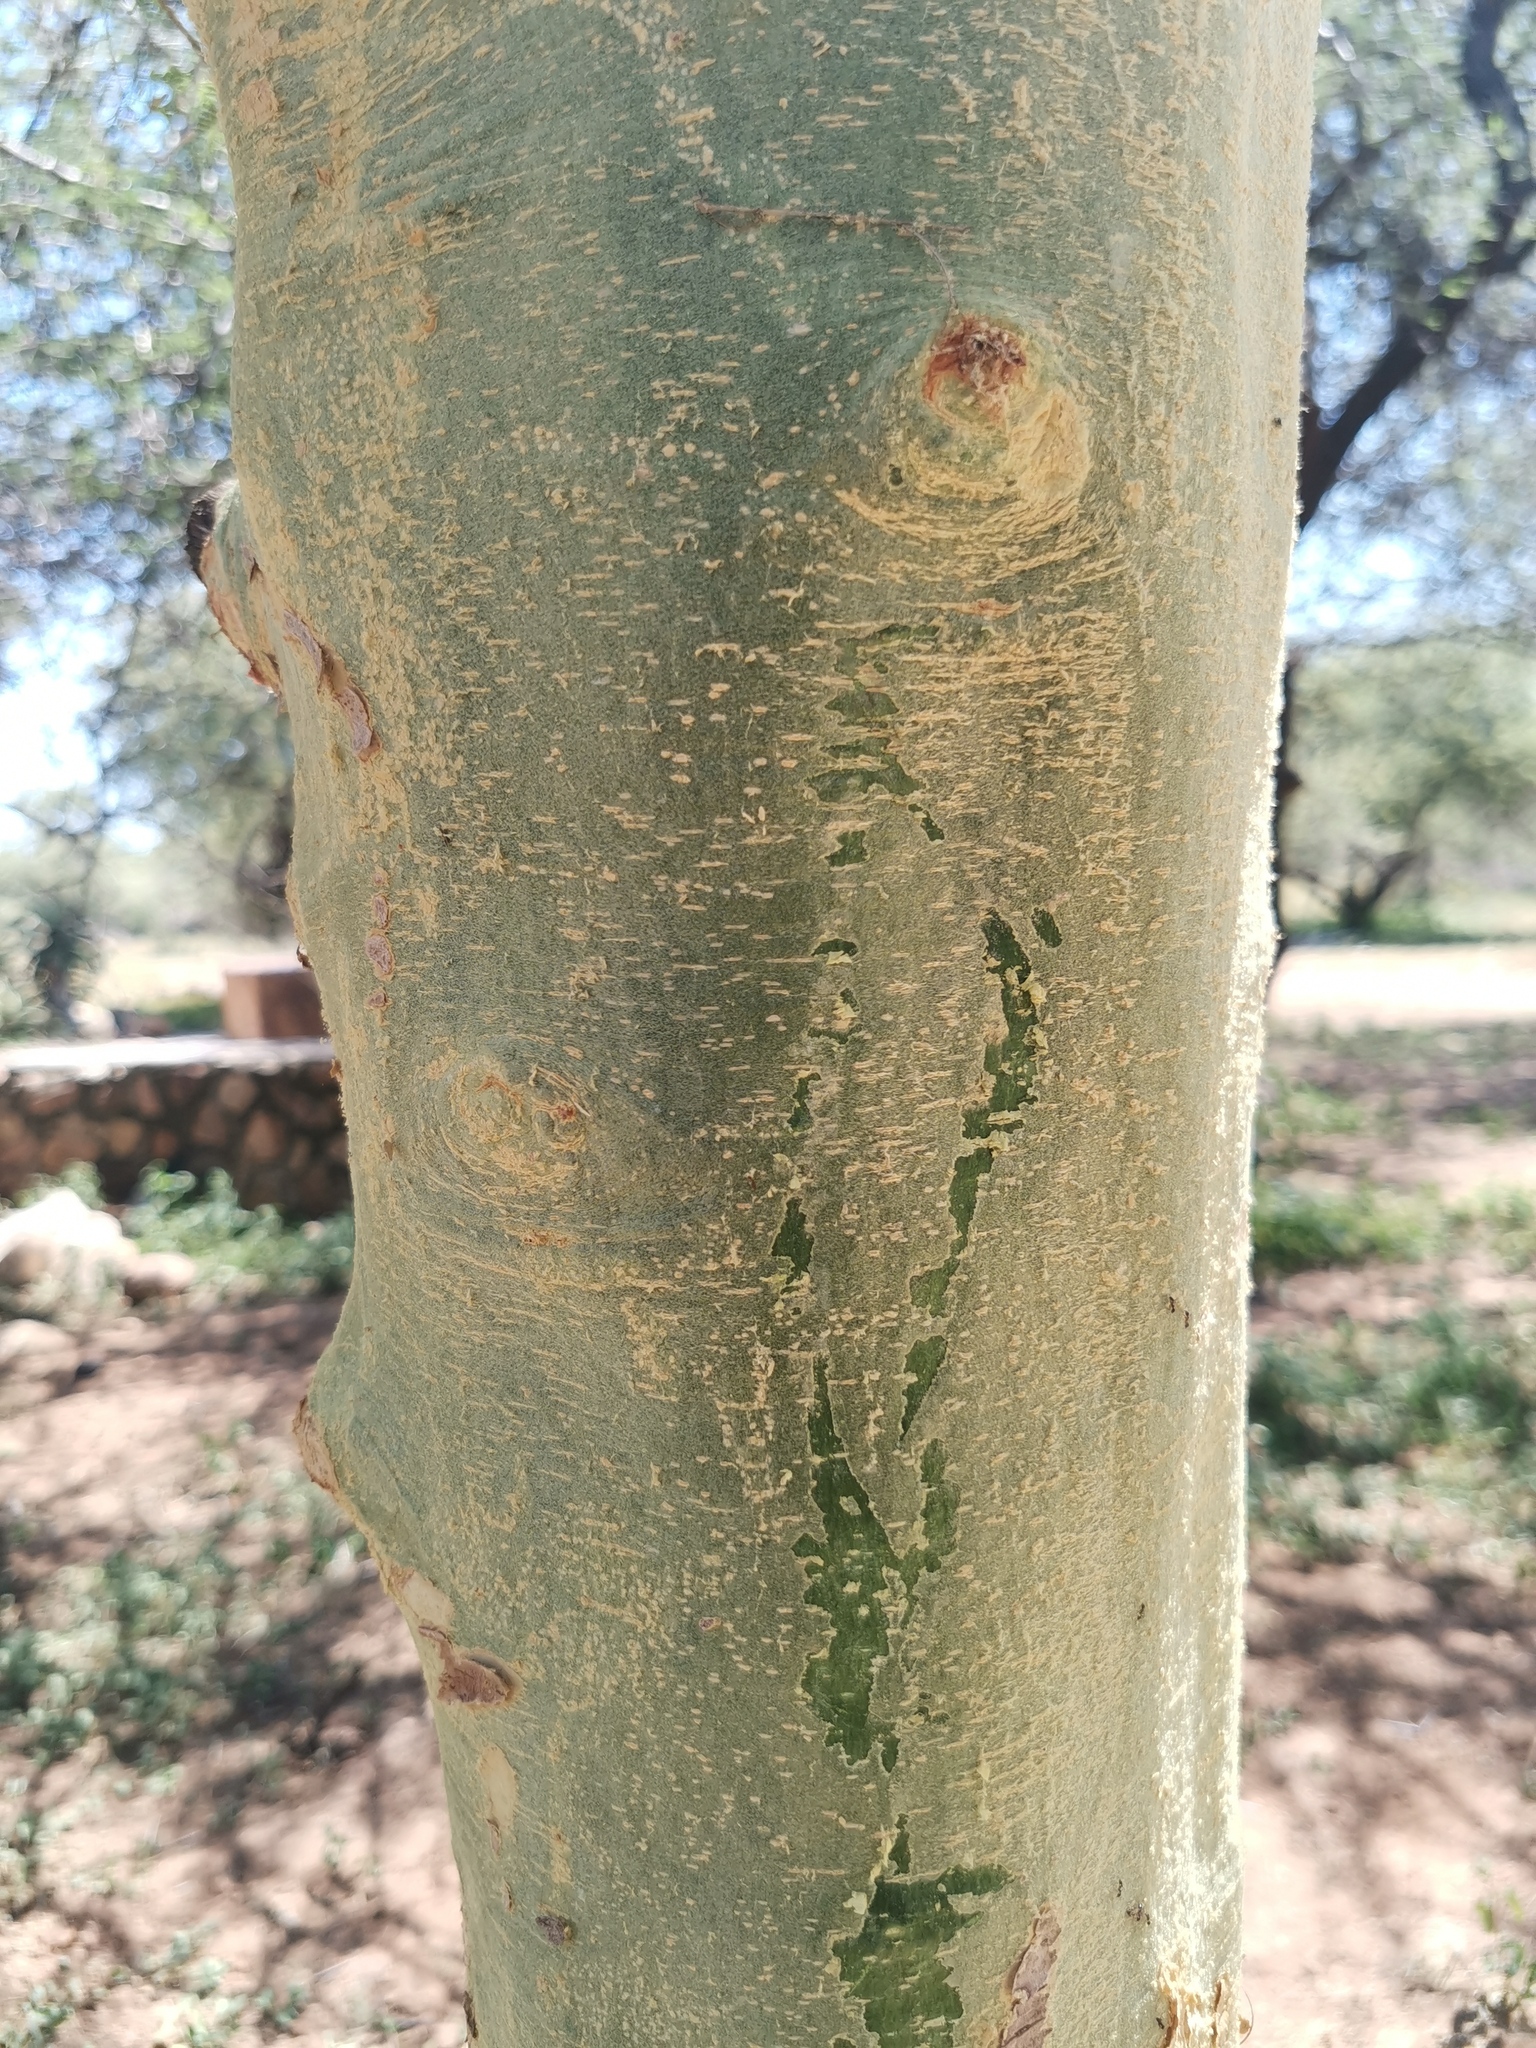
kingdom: Plantae
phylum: Tracheophyta
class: Magnoliopsida
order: Fabales
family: Fabaceae
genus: Vachellia
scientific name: Vachellia xanthophloea
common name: Fever tree
